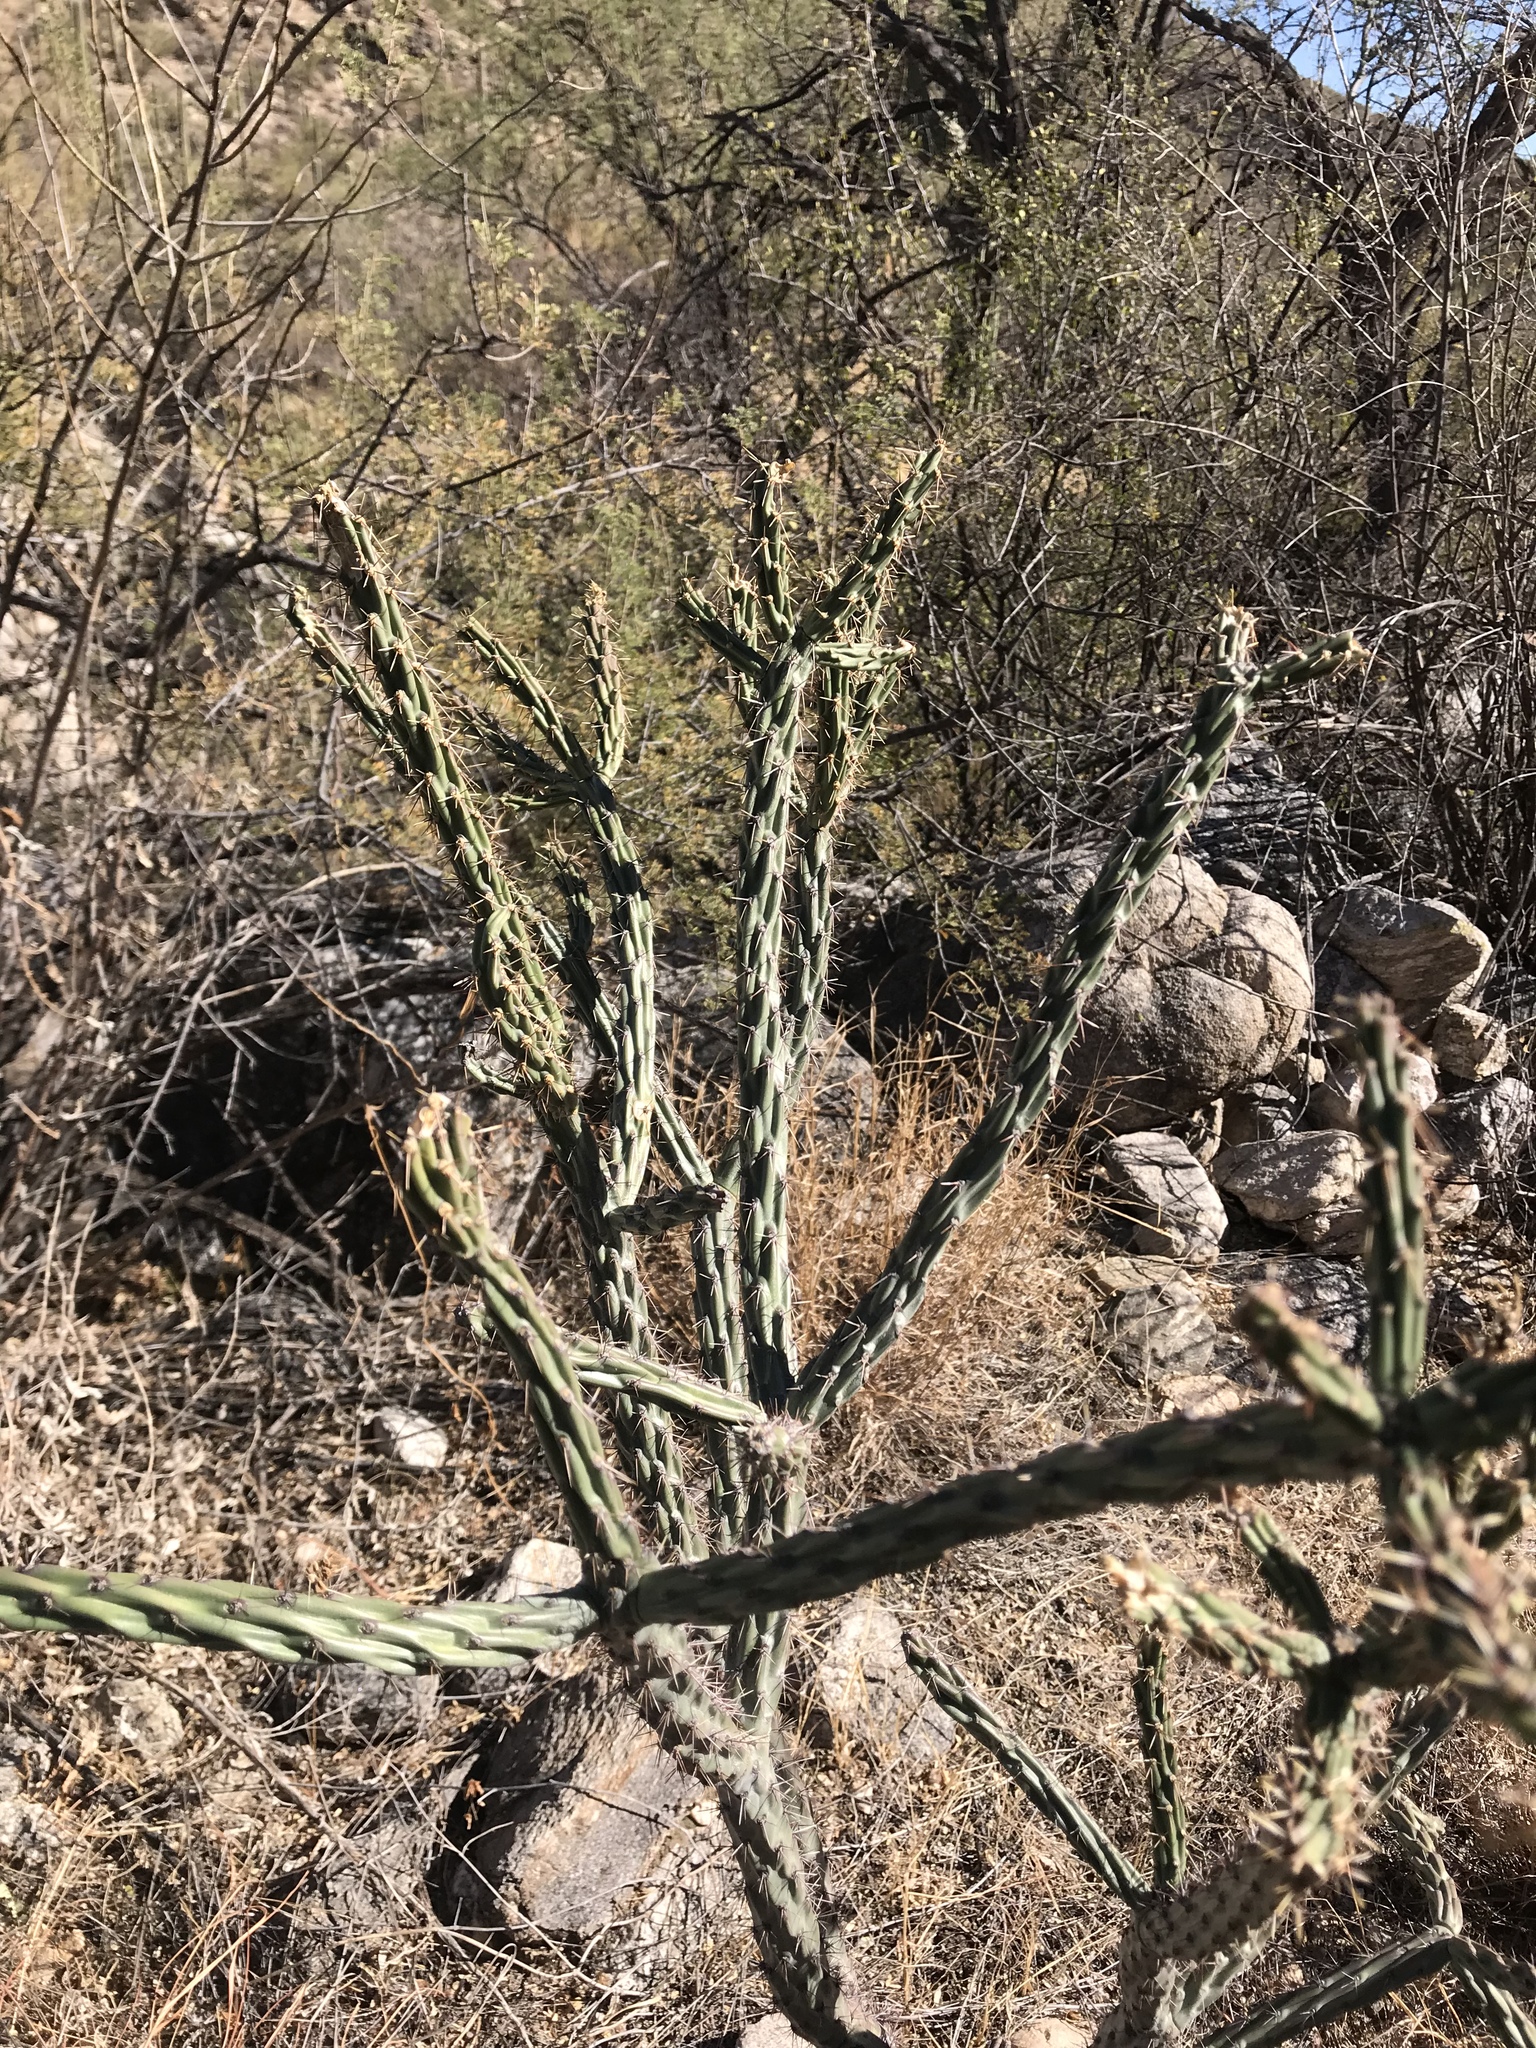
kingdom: Plantae
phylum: Tracheophyta
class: Magnoliopsida
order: Caryophyllales
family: Cactaceae
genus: Cylindropuntia
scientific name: Cylindropuntia acanthocarpa
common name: Buckhorn cholla
